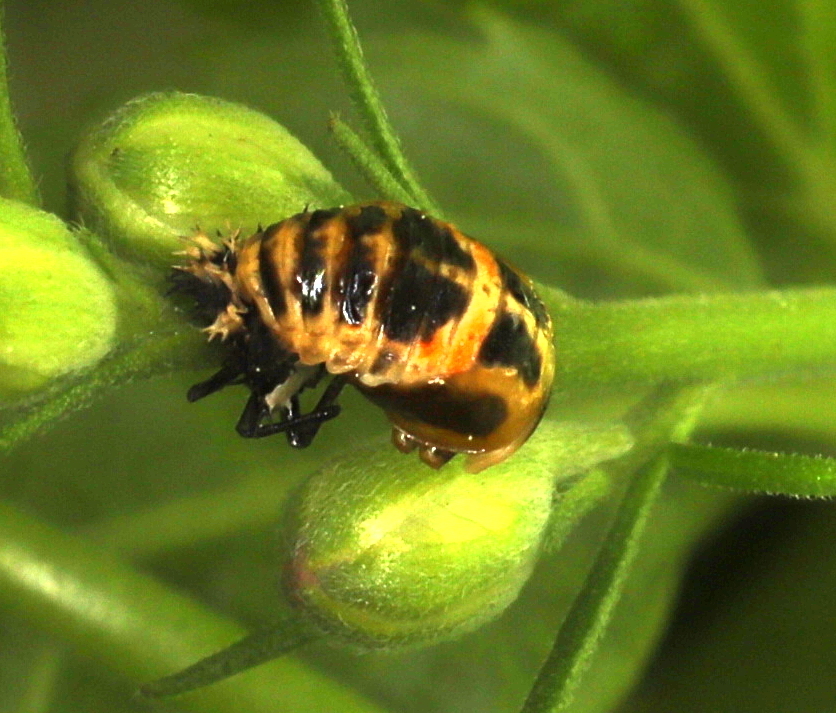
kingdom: Animalia
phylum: Arthropoda
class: Insecta
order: Coleoptera
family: Coccinellidae
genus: Harmonia
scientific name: Harmonia axyridis
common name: Harlequin ladybird
